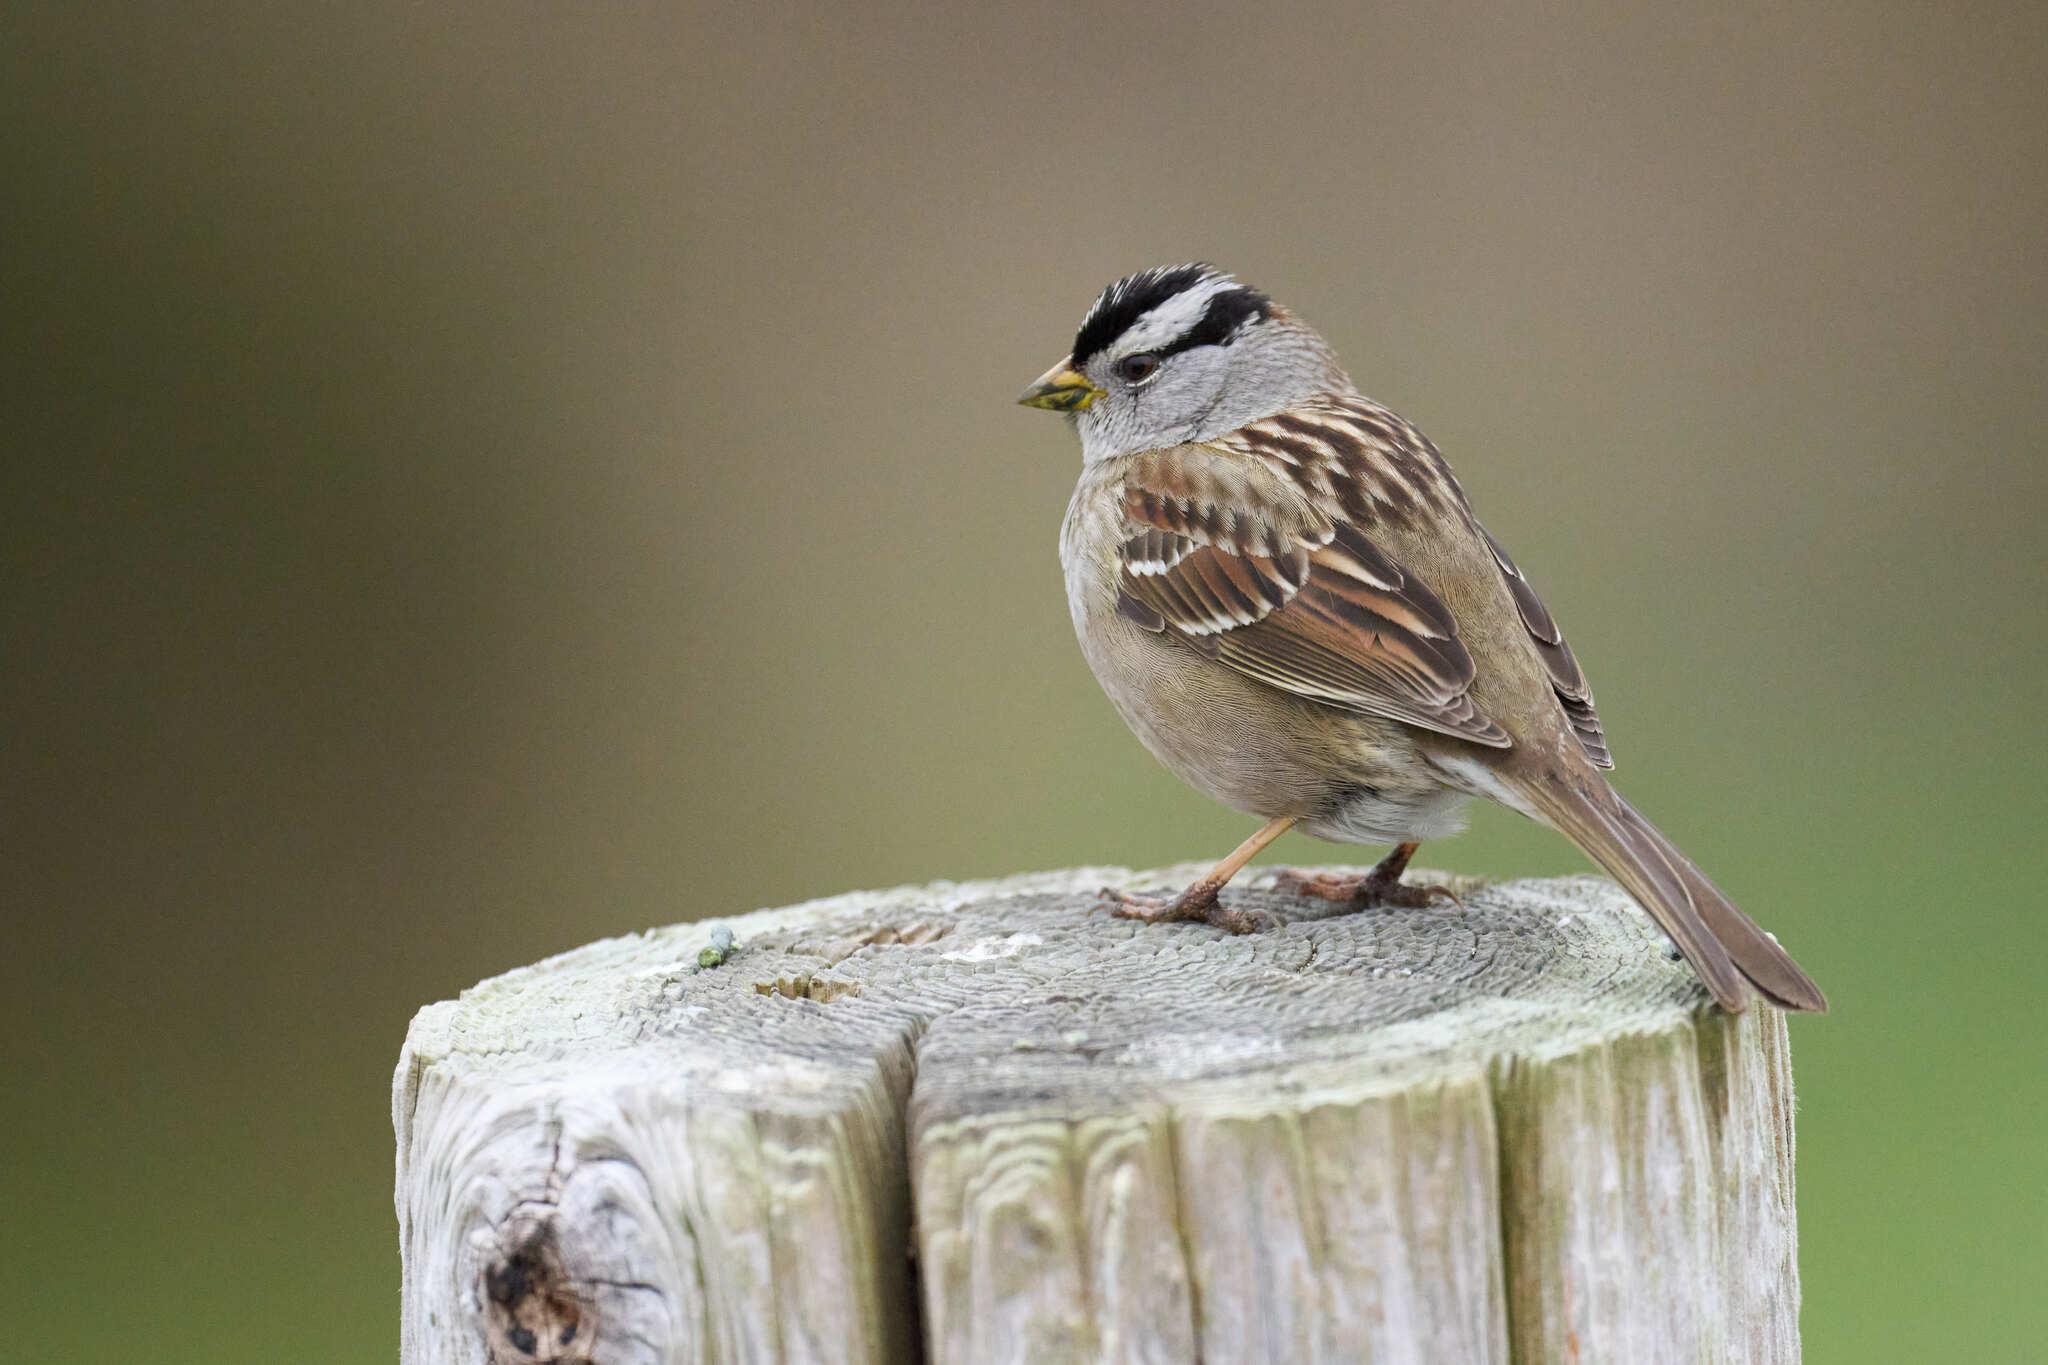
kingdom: Animalia
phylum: Chordata
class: Aves
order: Passeriformes
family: Passerellidae
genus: Zonotrichia
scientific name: Zonotrichia leucophrys
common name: White-crowned sparrow
